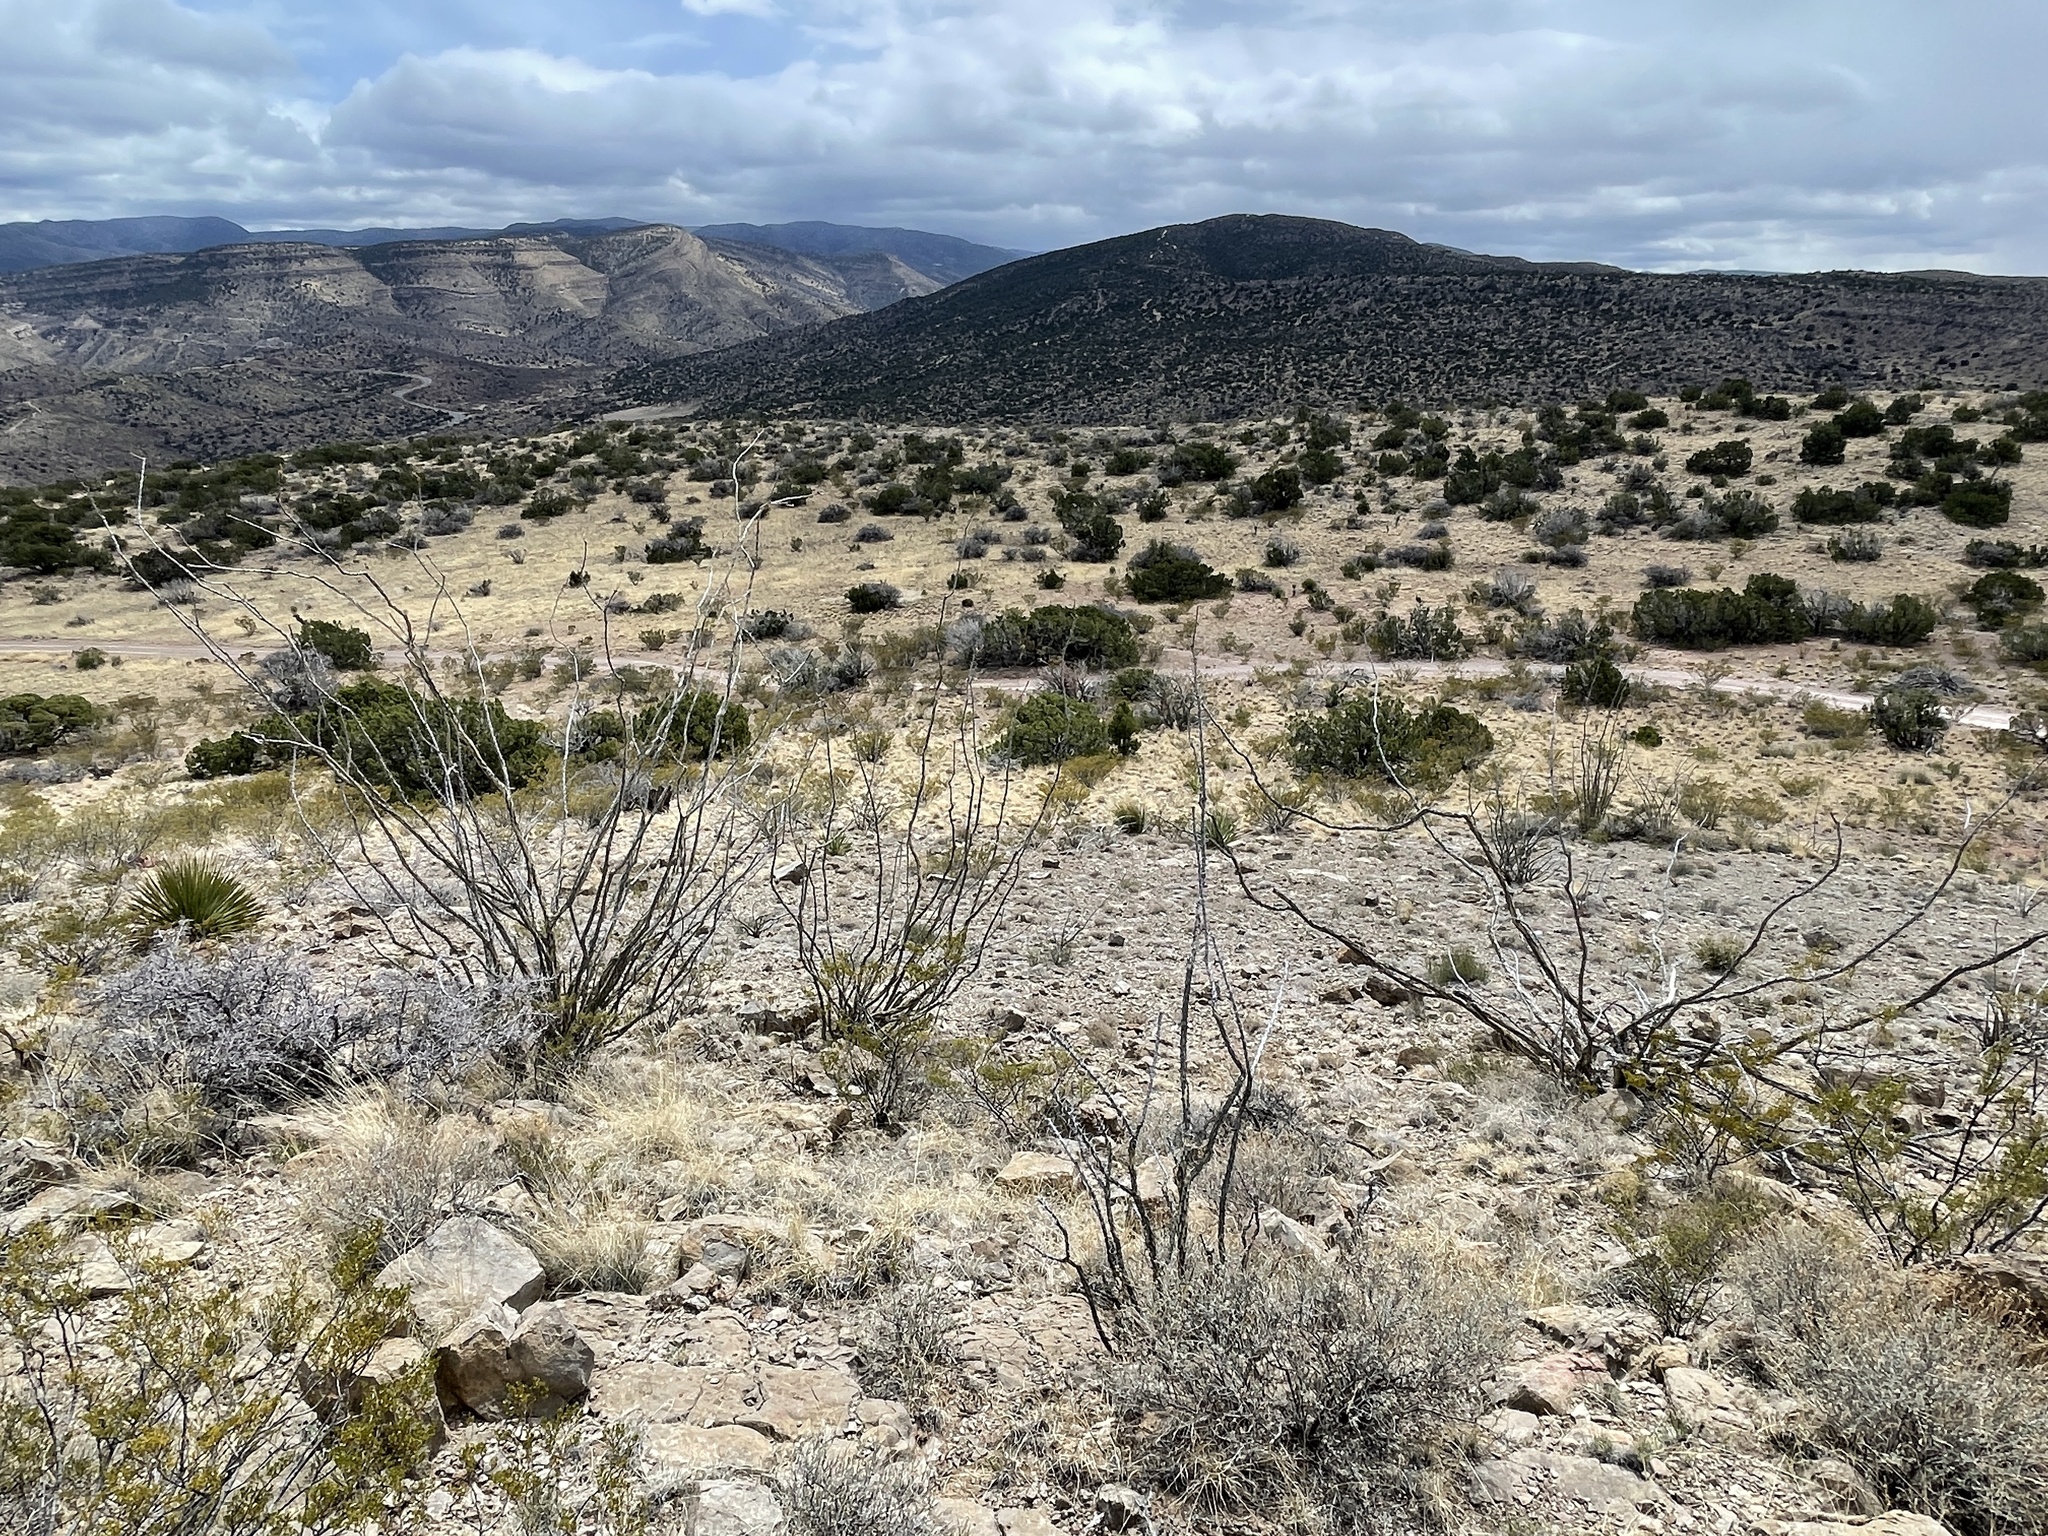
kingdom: Plantae
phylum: Tracheophyta
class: Magnoliopsida
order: Ericales
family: Fouquieriaceae
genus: Fouquieria
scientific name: Fouquieria splendens
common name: Vine-cactus
